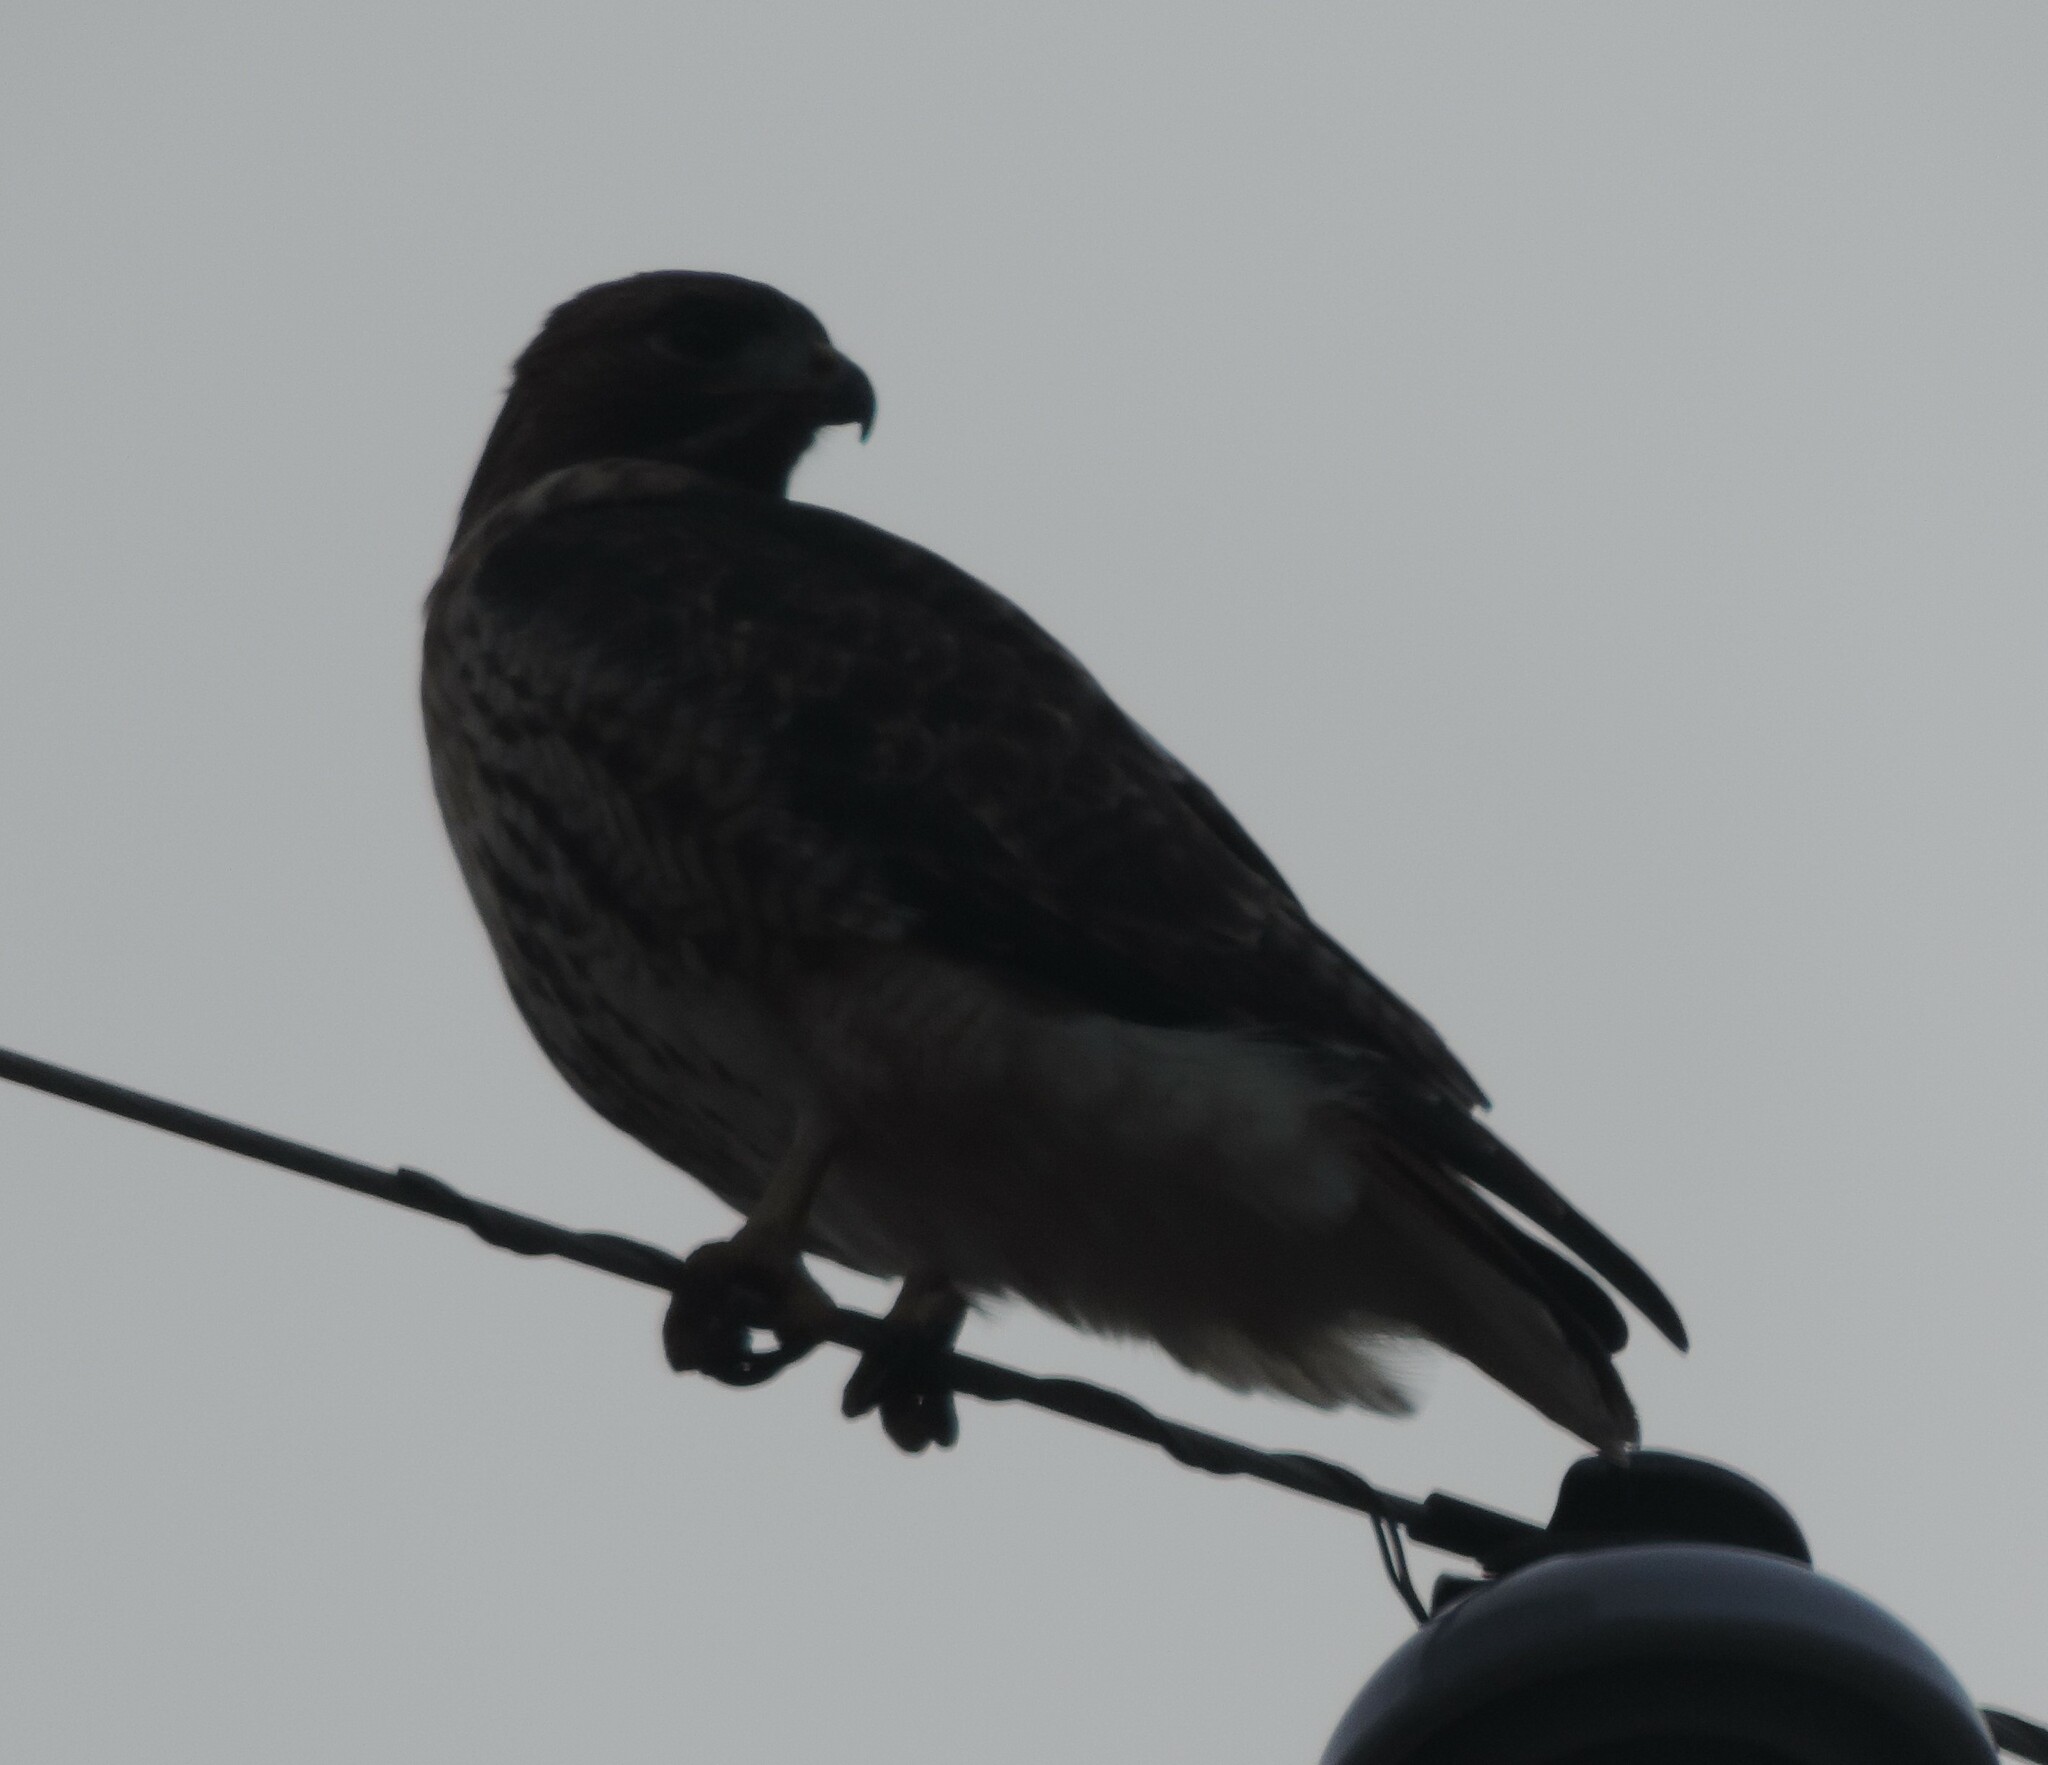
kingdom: Animalia
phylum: Chordata
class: Aves
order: Accipitriformes
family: Accipitridae
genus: Buteo
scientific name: Buteo jamaicensis
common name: Red-tailed hawk
